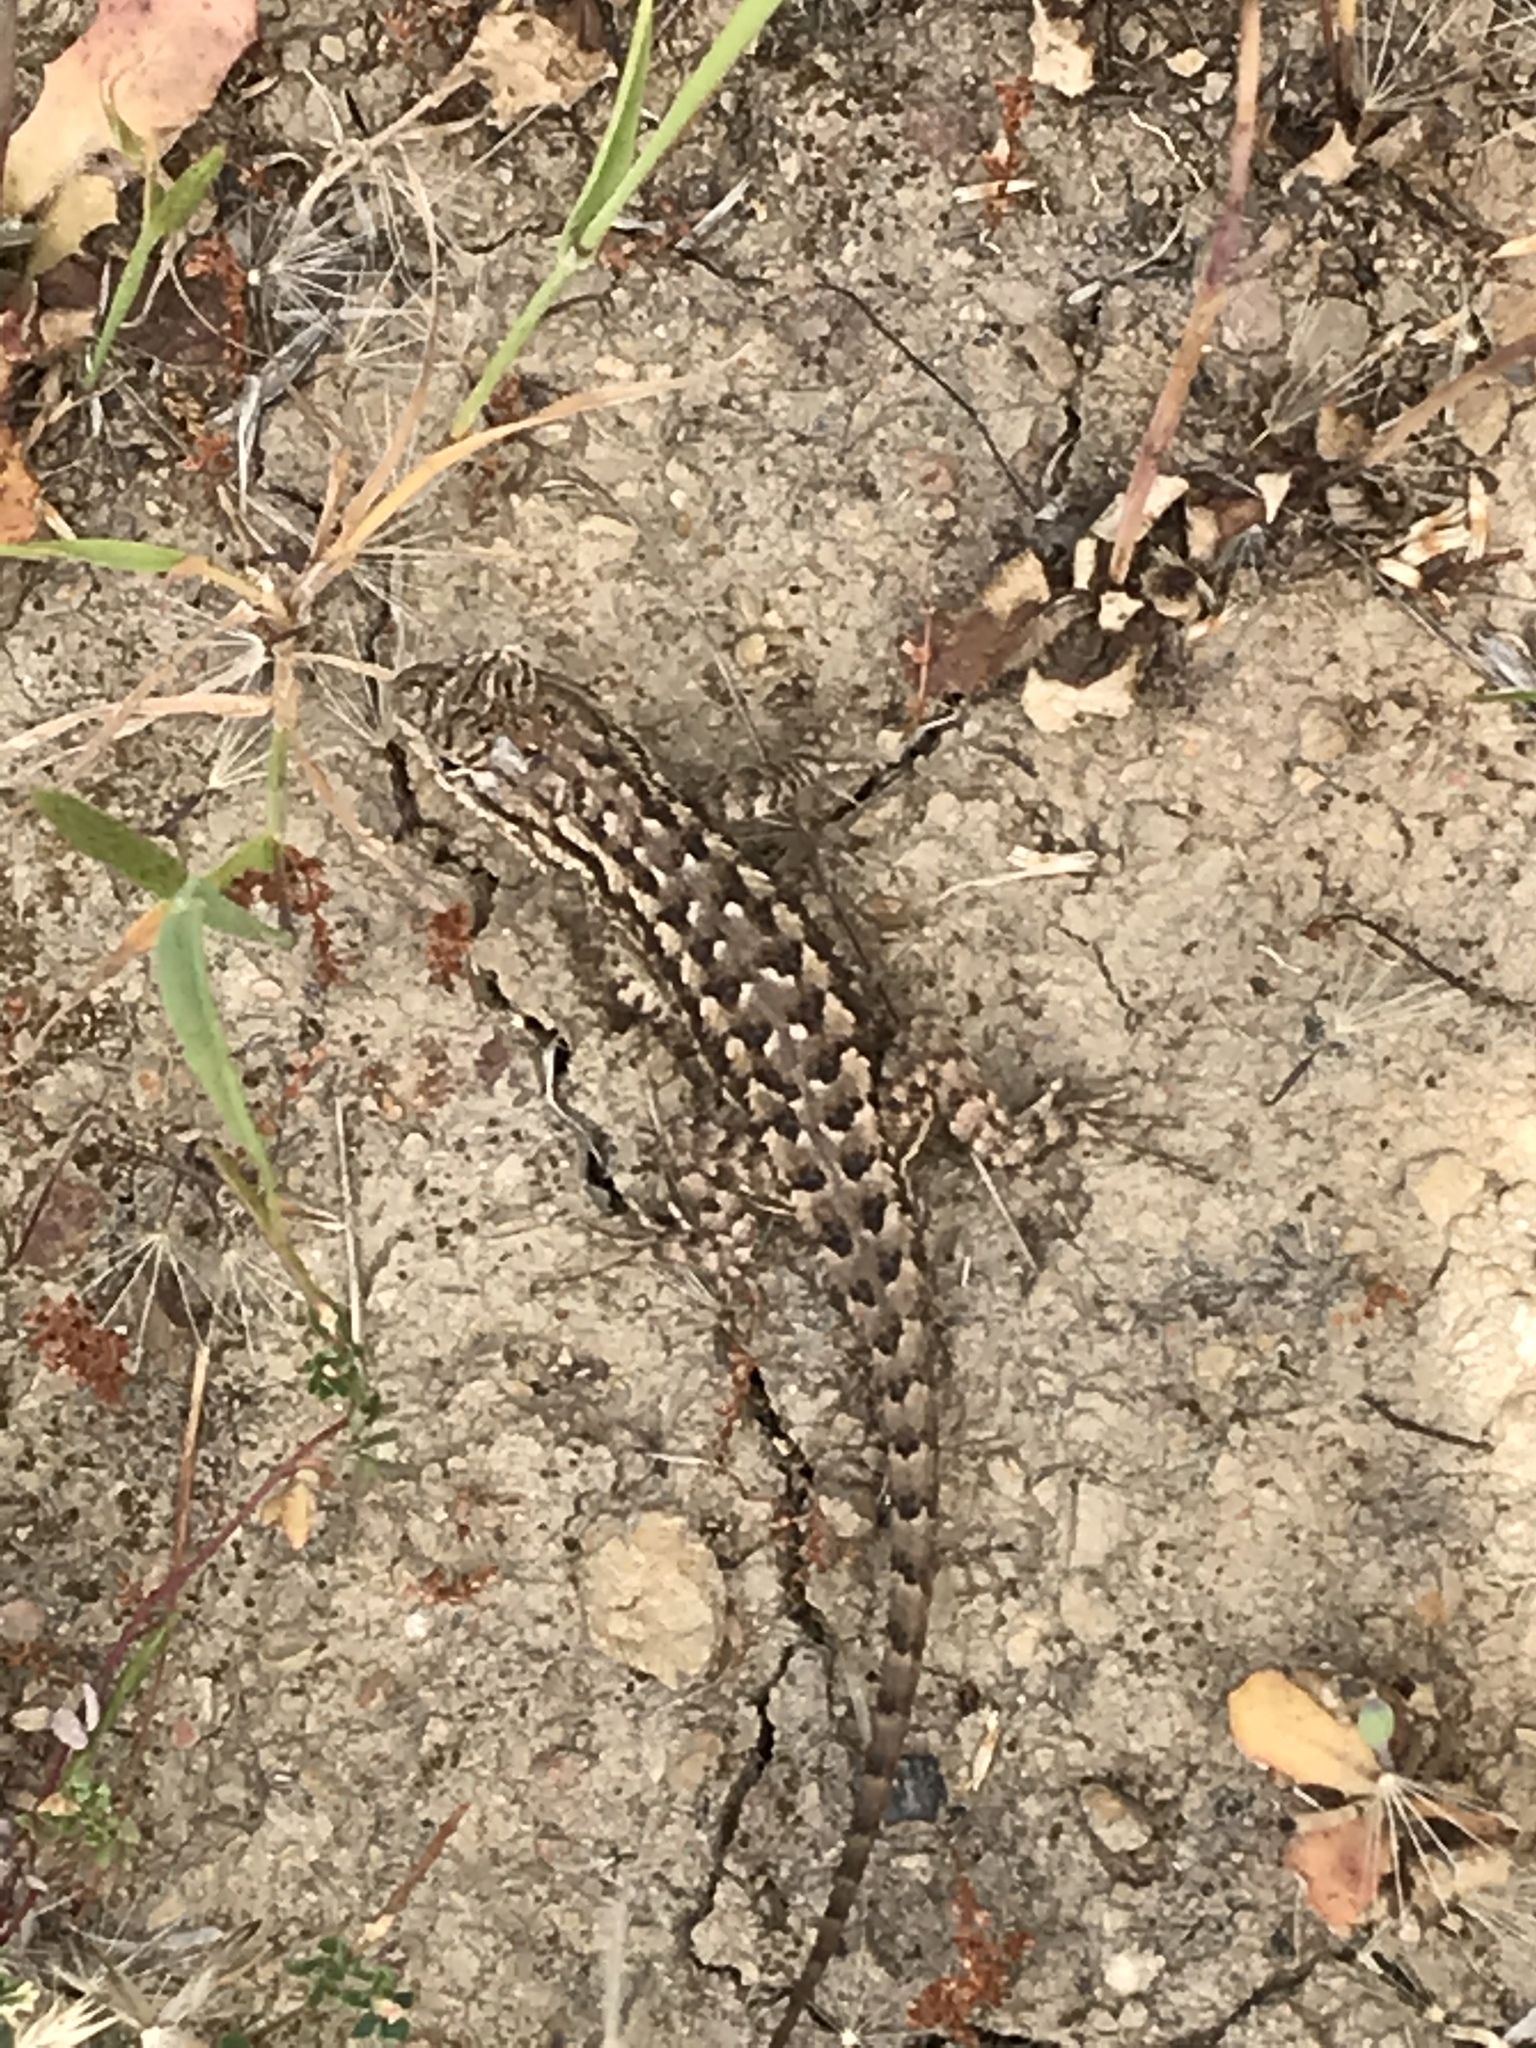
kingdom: Animalia
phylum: Chordata
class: Squamata
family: Phrynosomatidae
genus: Sceloporus
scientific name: Sceloporus occidentalis
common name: Western fence lizard
